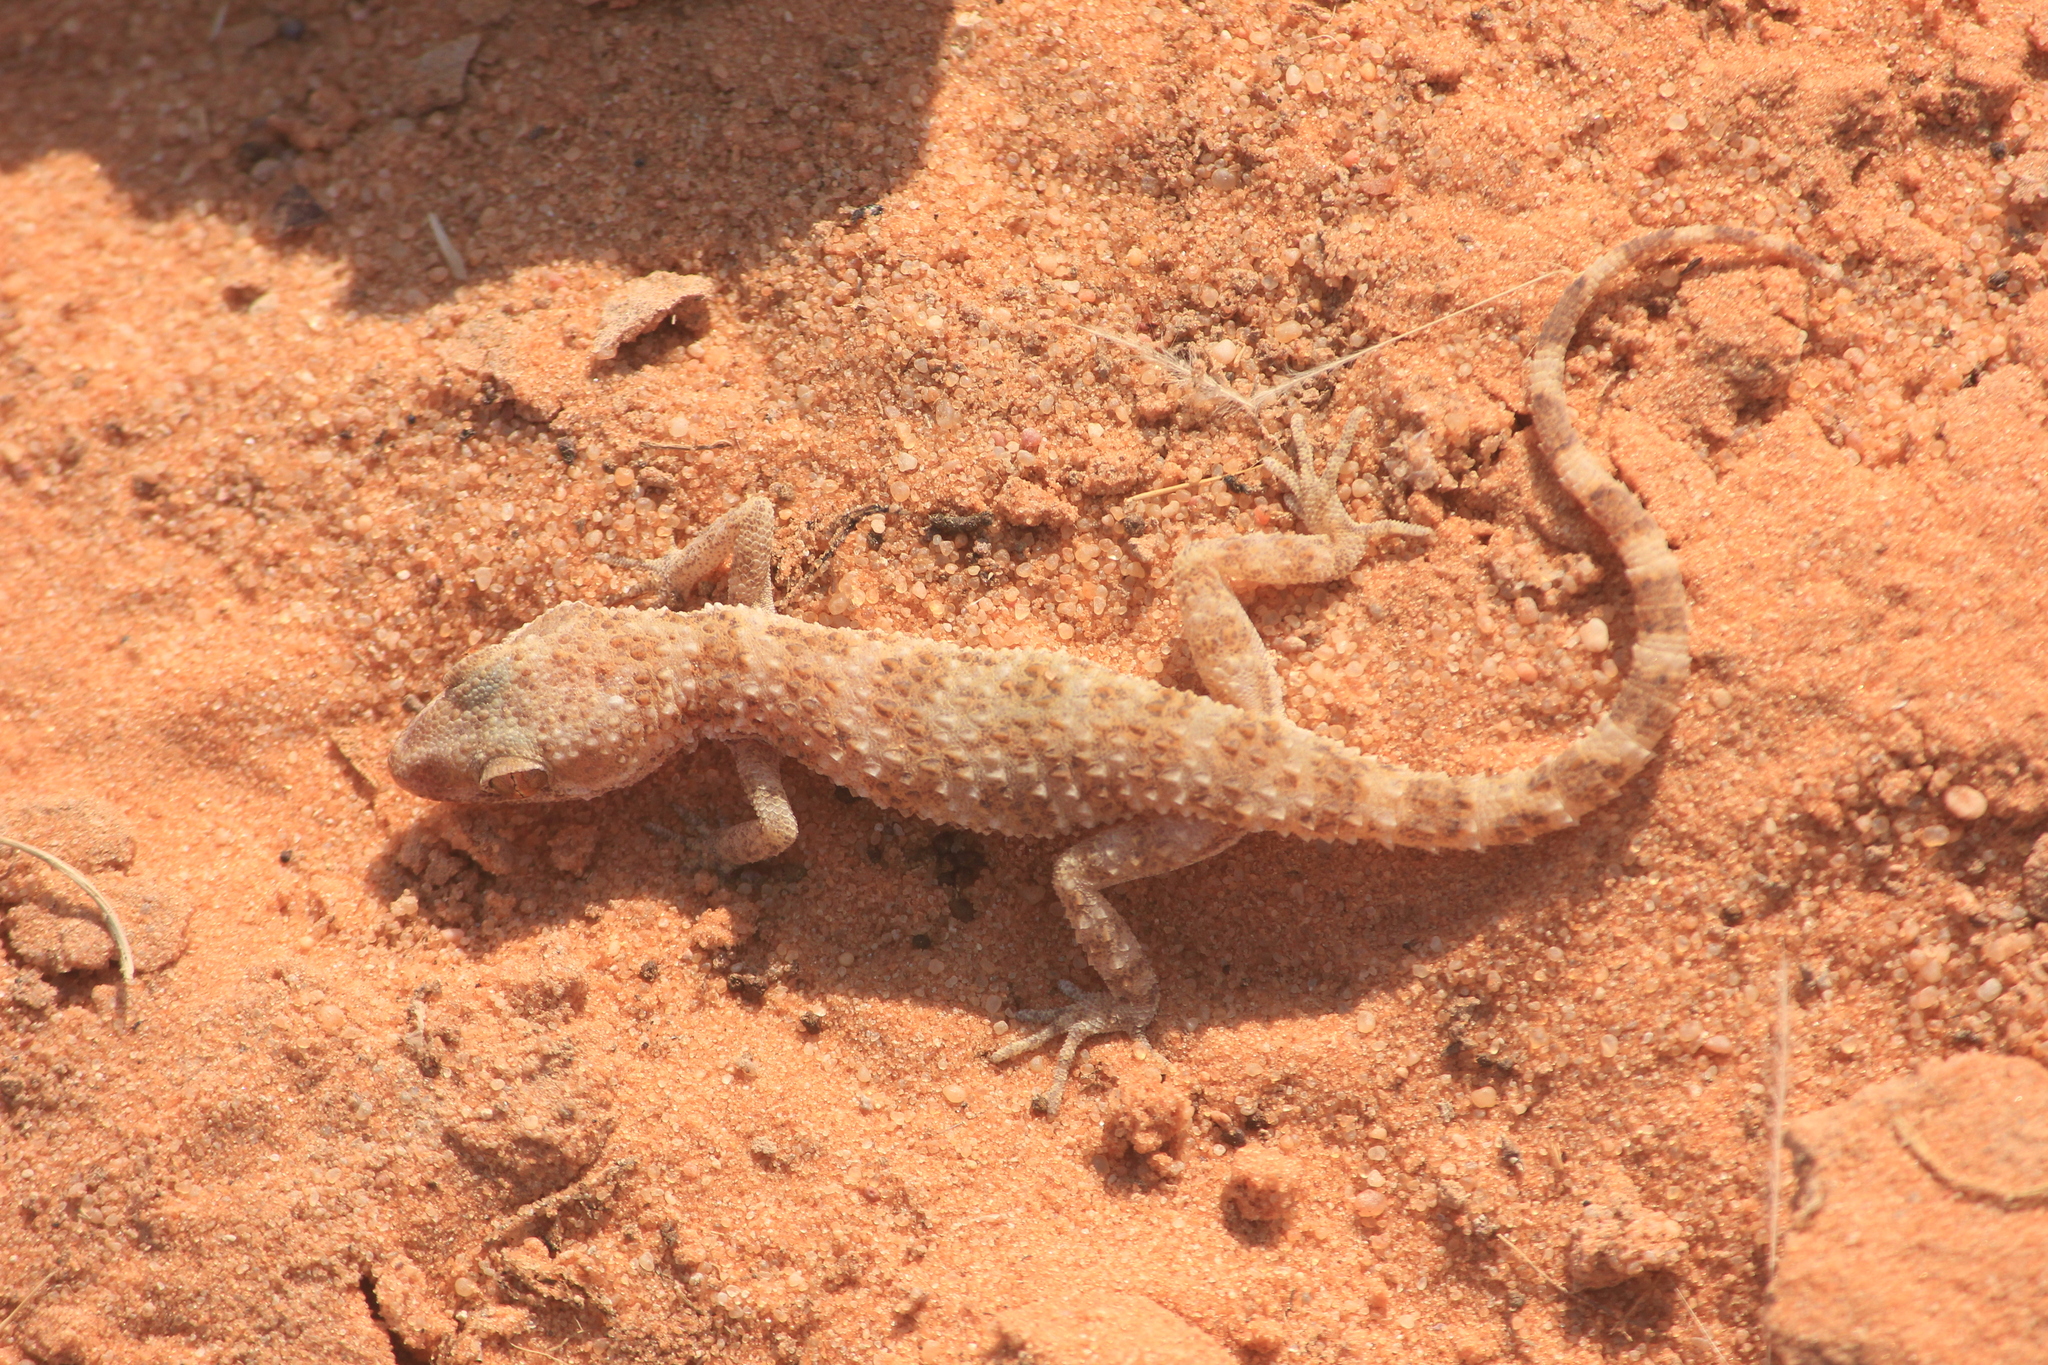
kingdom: Animalia
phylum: Chordata
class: Squamata
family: Gekkonidae
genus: Bunopus
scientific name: Bunopus tuberculatus
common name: Southern tuberculated gecko
